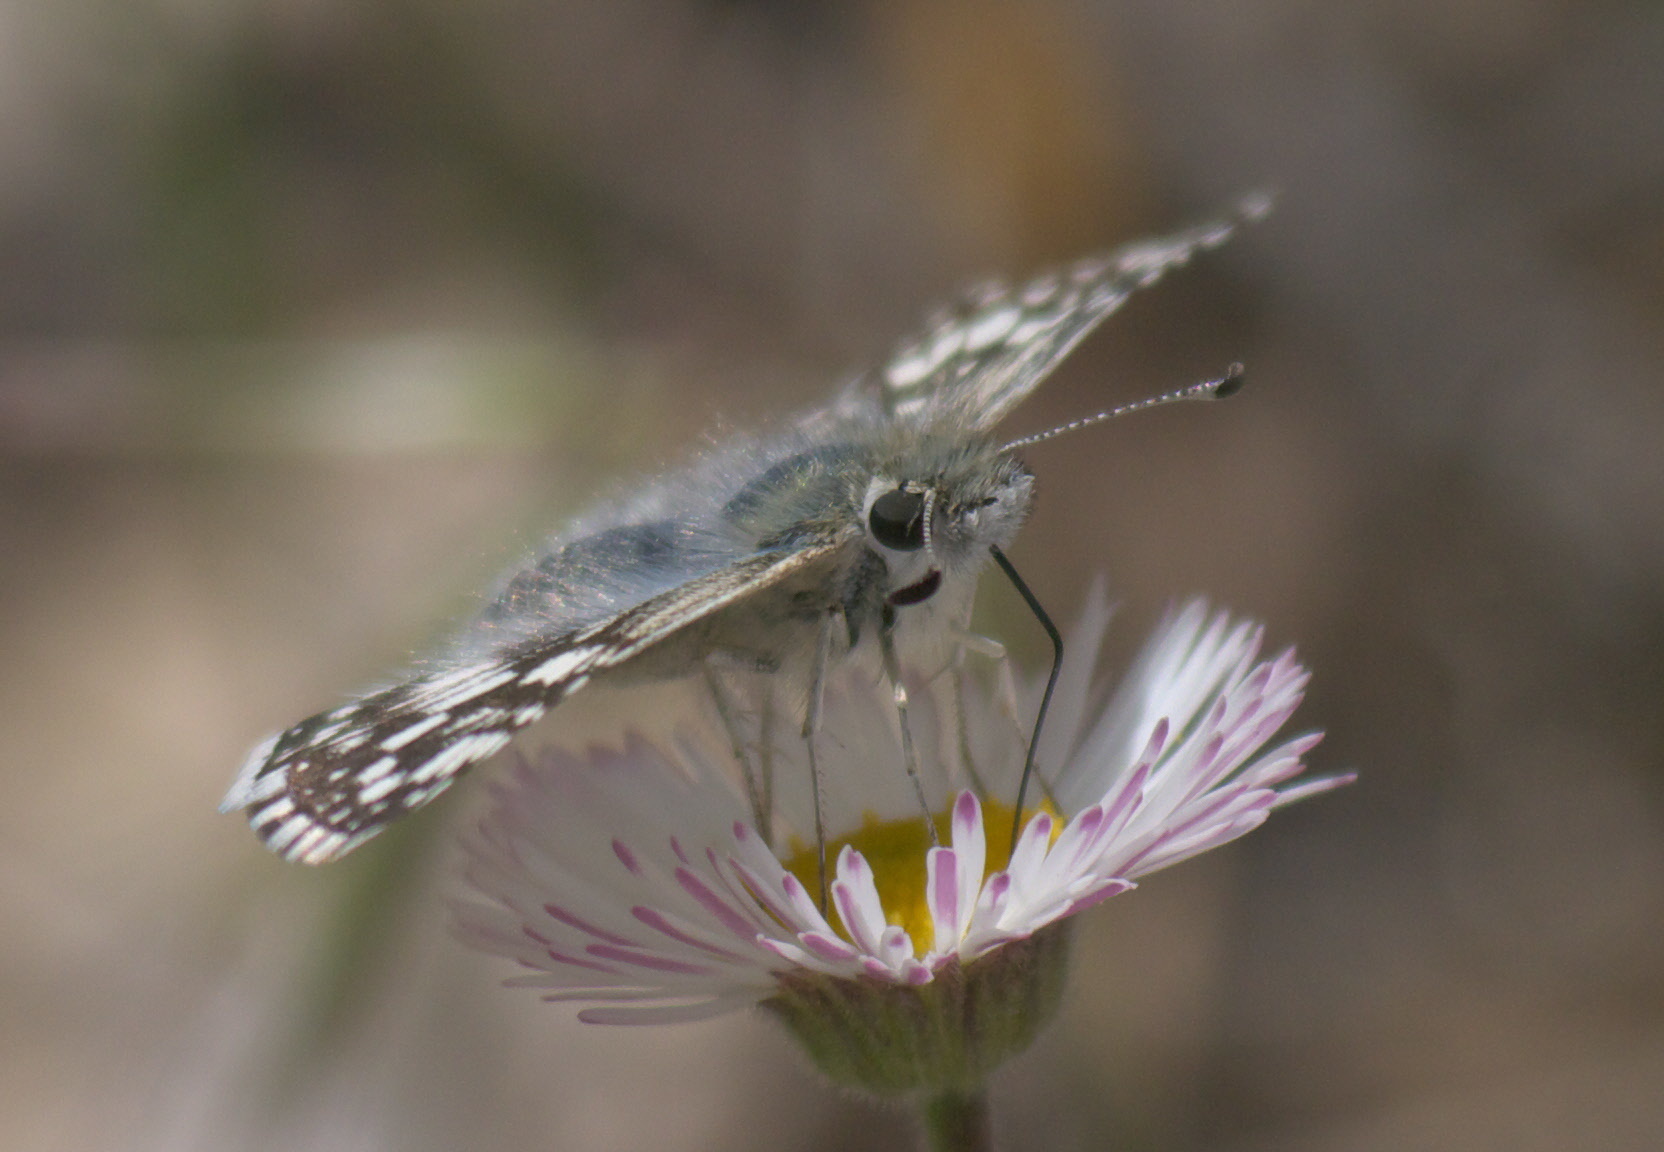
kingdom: Animalia
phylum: Arthropoda
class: Insecta
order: Lepidoptera
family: Hesperiidae
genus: Burnsius
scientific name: Burnsius communis
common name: Common checkered-skipper
